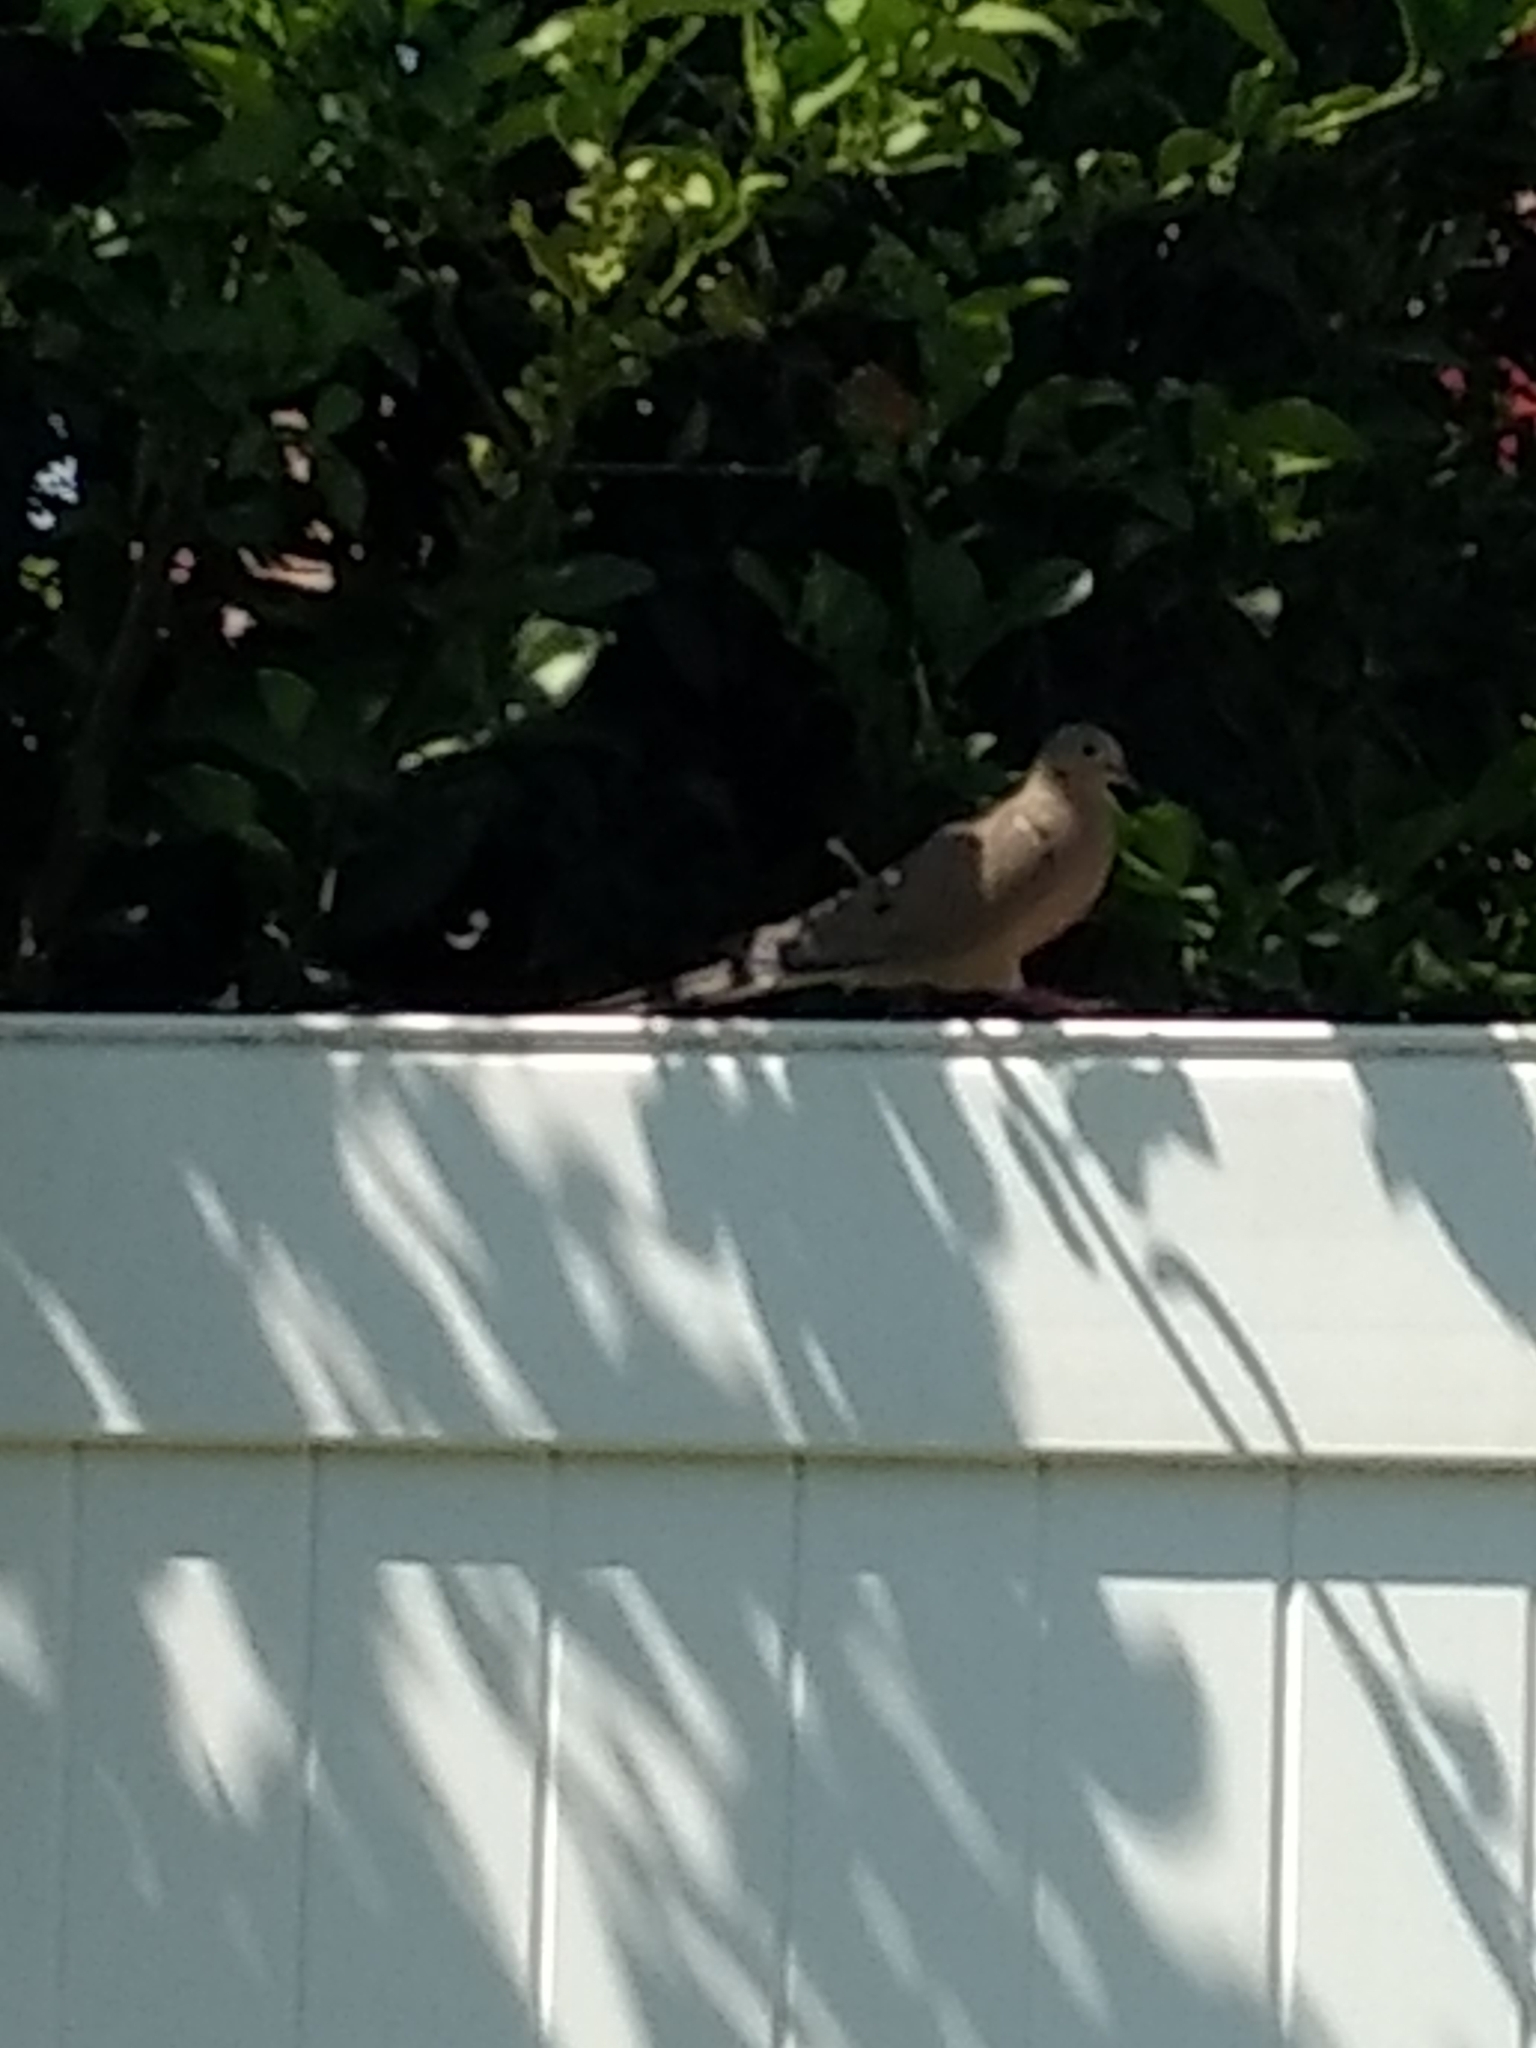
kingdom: Animalia
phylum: Chordata
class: Aves
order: Columbiformes
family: Columbidae
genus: Zenaida
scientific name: Zenaida macroura
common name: Mourning dove
